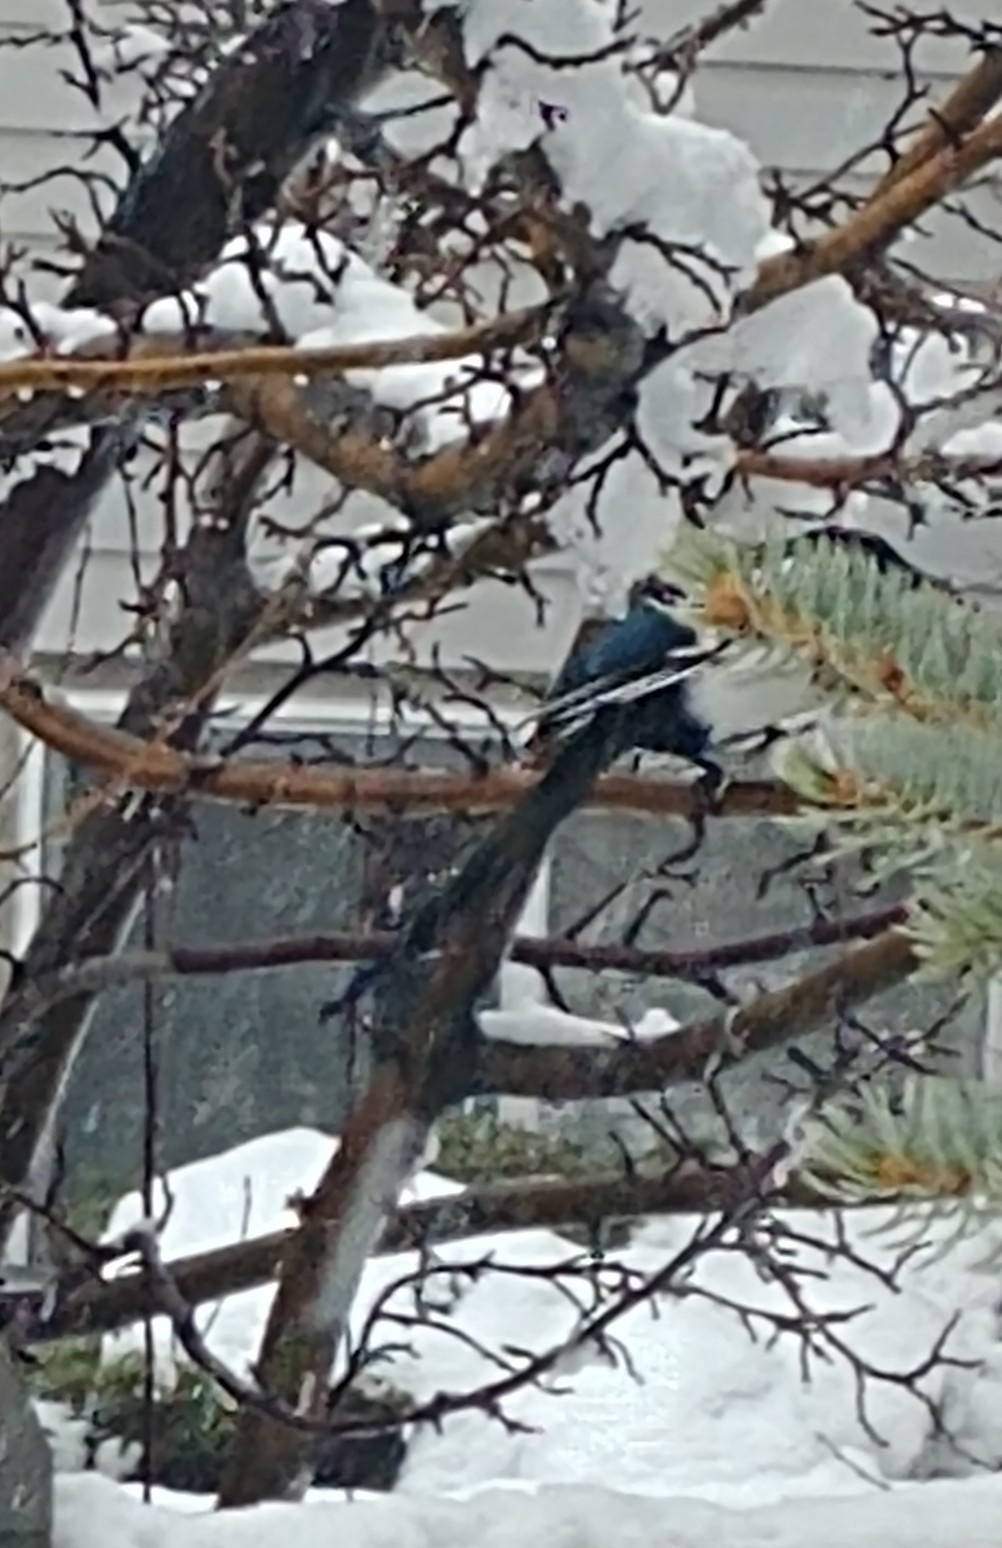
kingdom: Animalia
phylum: Chordata
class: Aves
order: Passeriformes
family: Corvidae
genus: Pica
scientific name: Pica hudsonia
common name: Black-billed magpie
